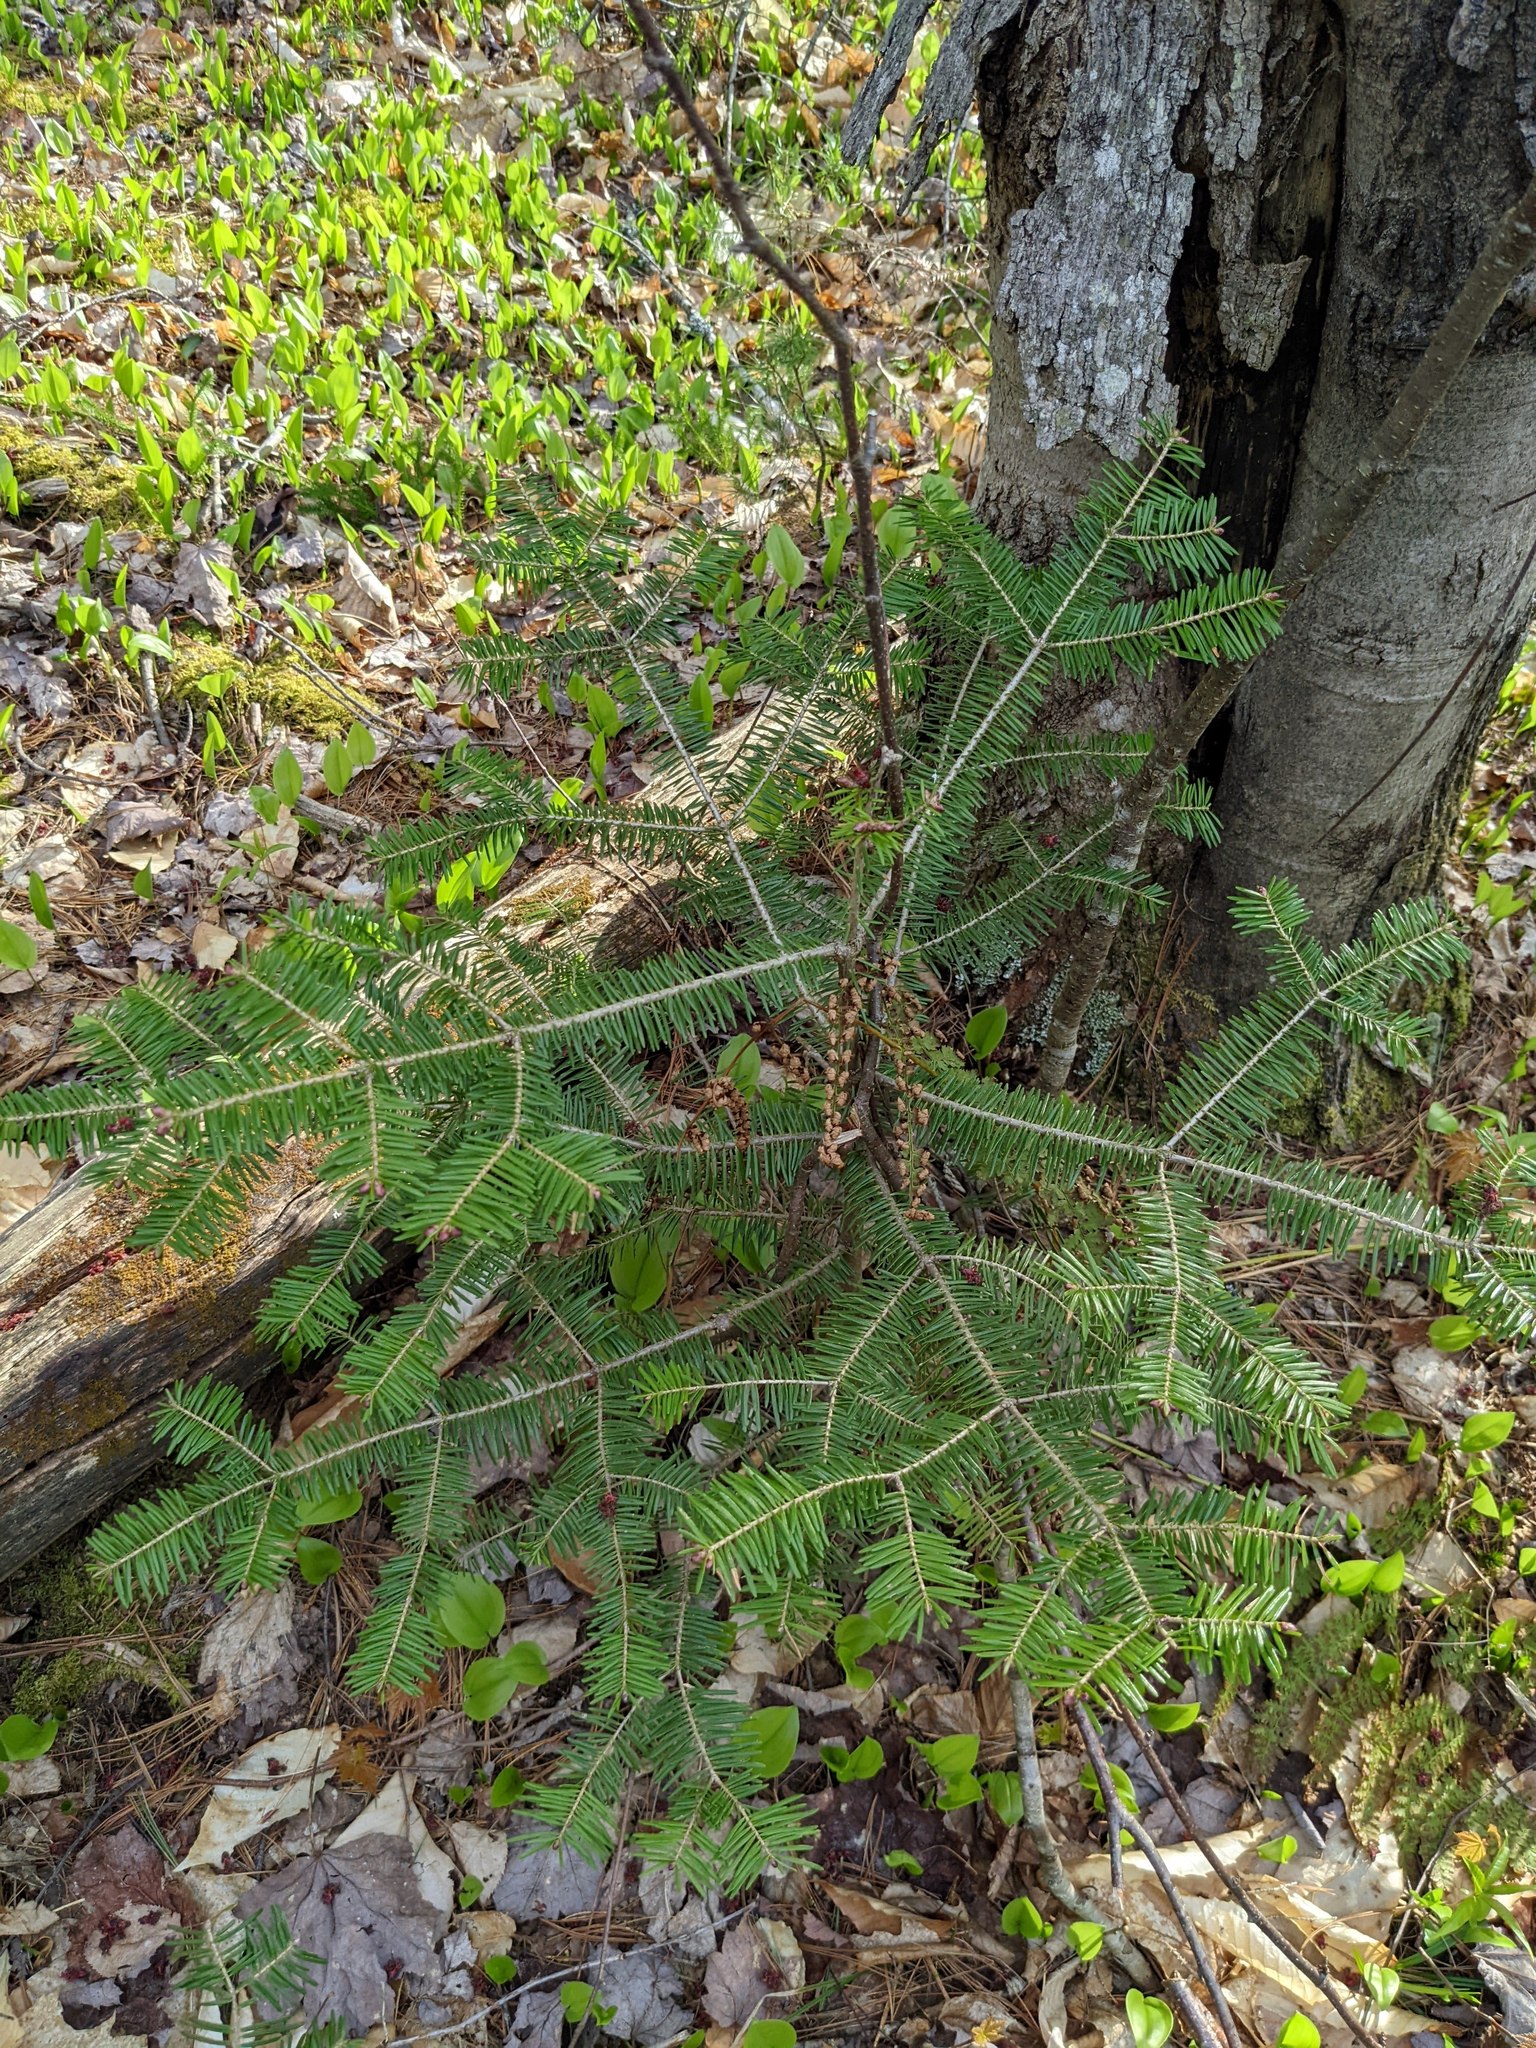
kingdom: Plantae
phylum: Tracheophyta
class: Pinopsida
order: Pinales
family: Pinaceae
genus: Abies
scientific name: Abies balsamea
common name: Balsam fir
